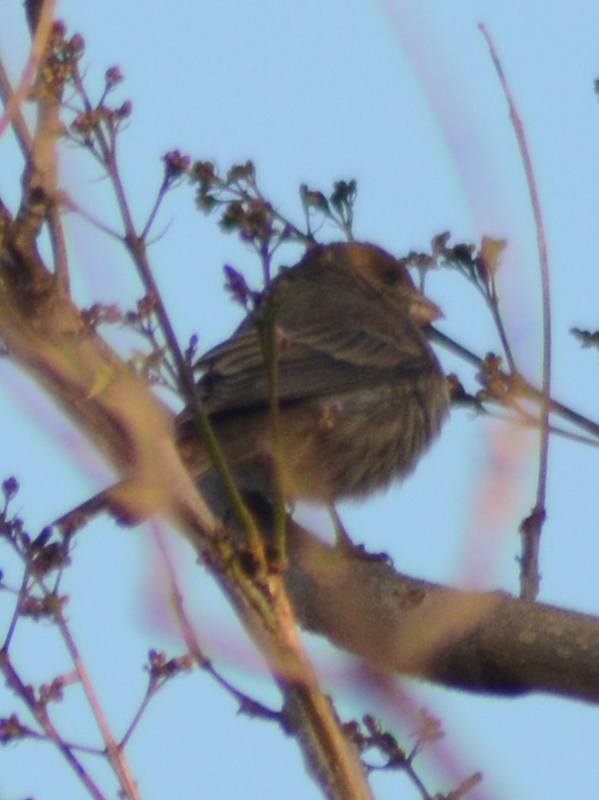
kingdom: Animalia
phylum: Chordata
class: Aves
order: Passeriformes
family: Fringillidae
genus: Haemorhous
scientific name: Haemorhous mexicanus
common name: House finch
